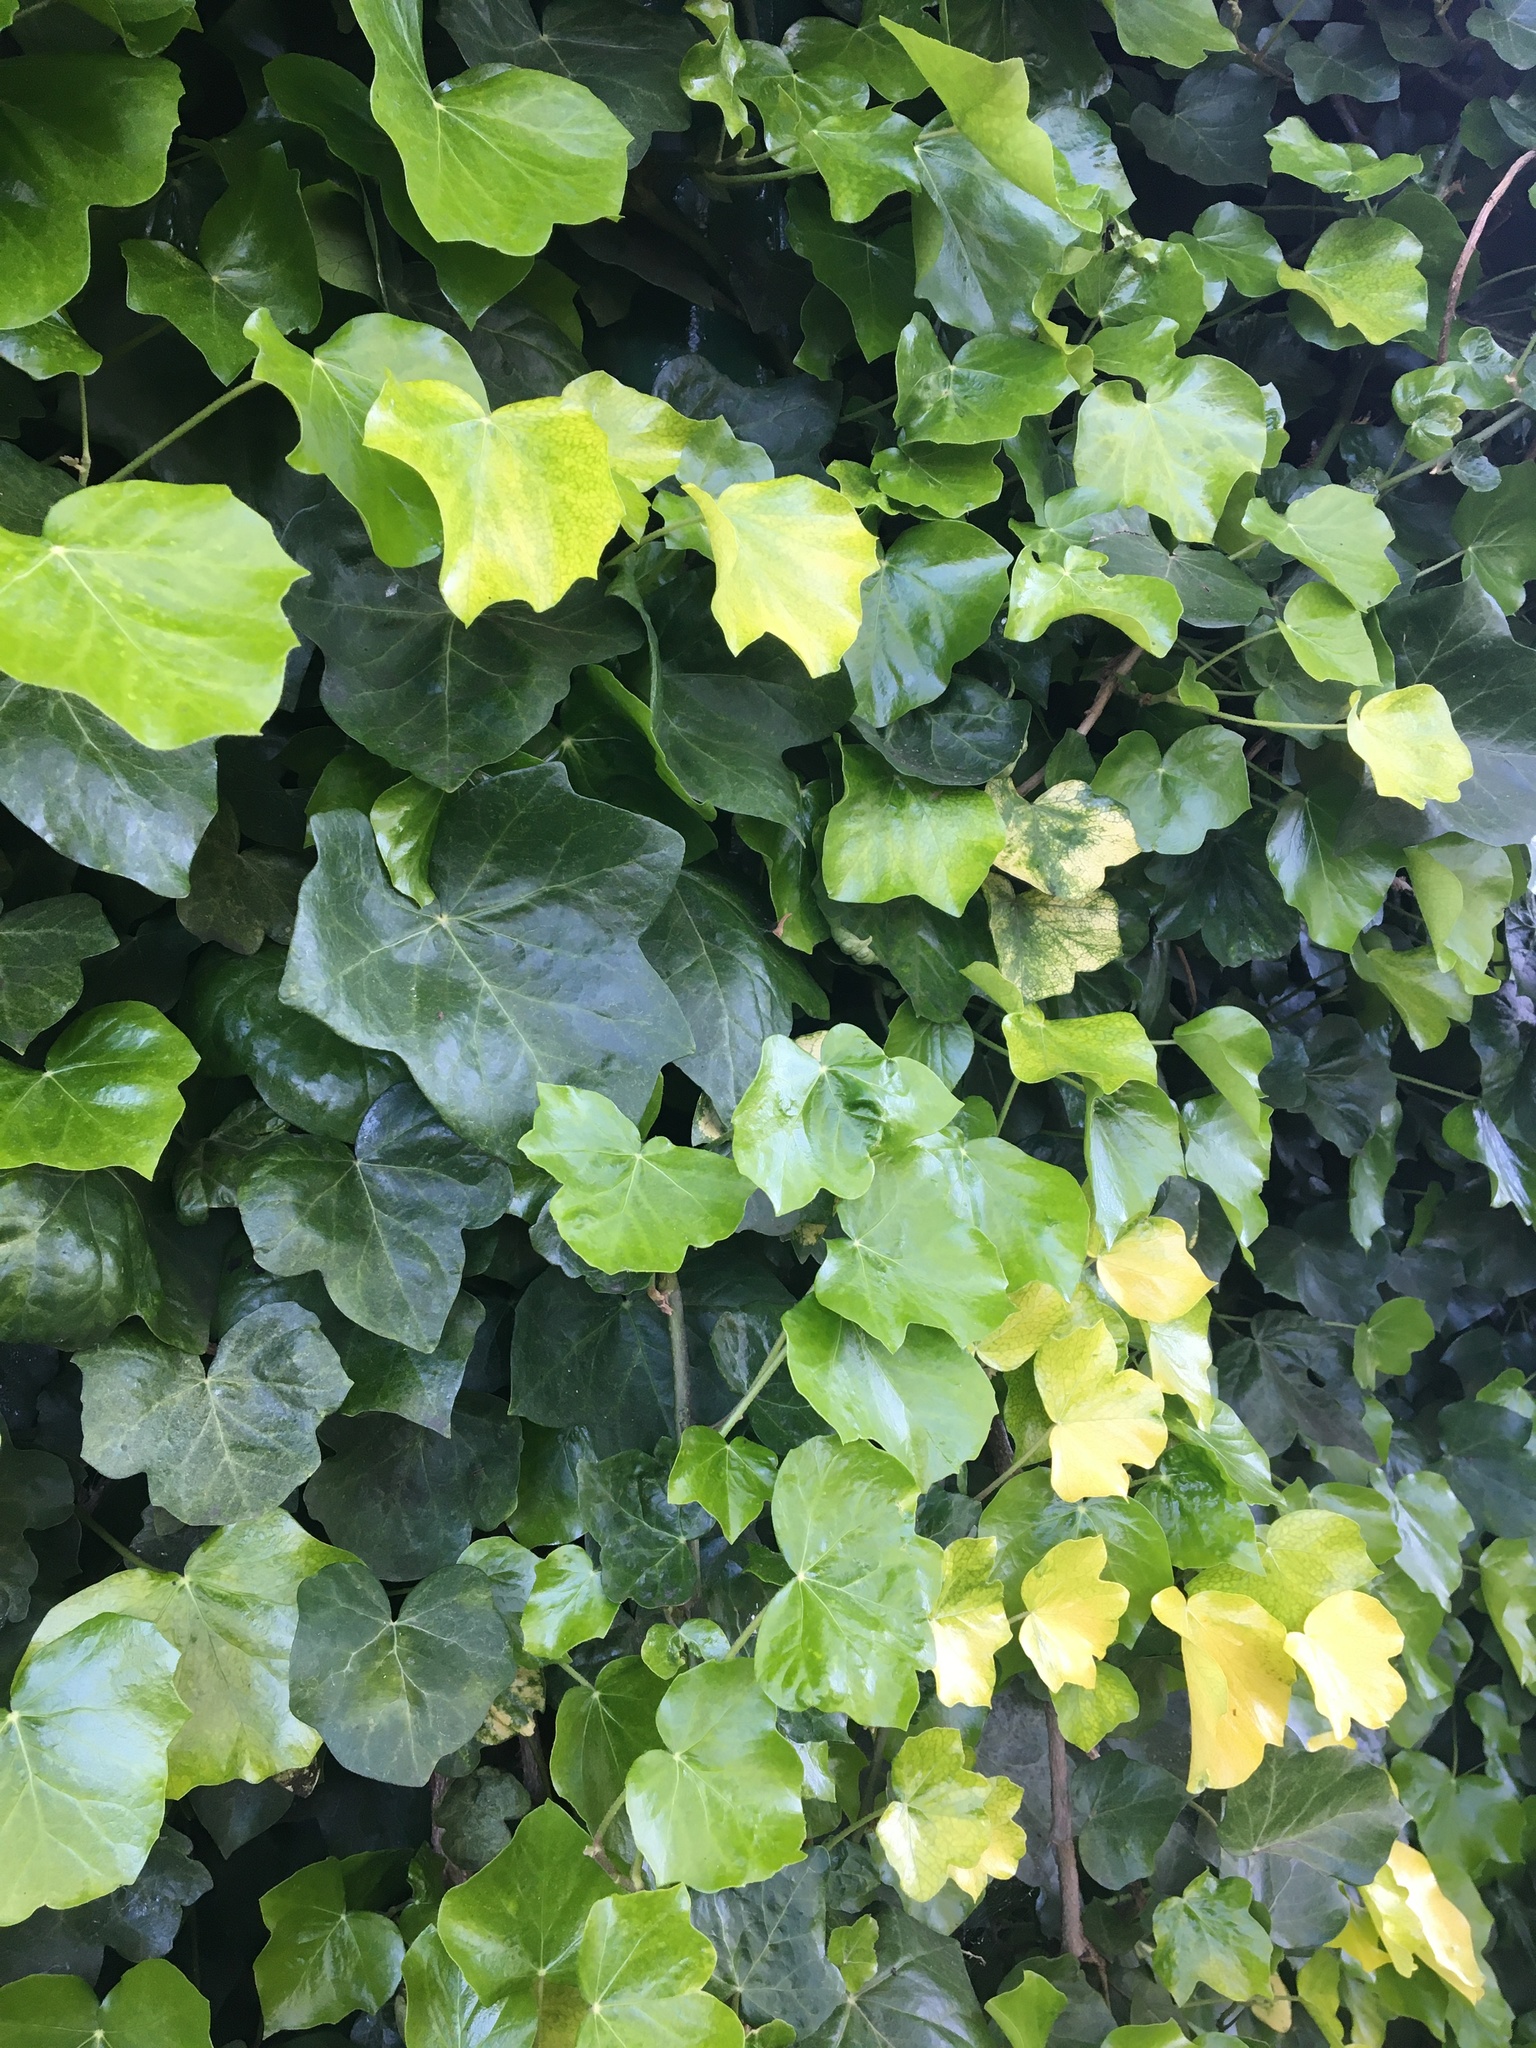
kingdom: Plantae
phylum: Tracheophyta
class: Magnoliopsida
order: Apiales
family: Araliaceae
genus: Hedera
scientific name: Hedera helix
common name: Ivy
